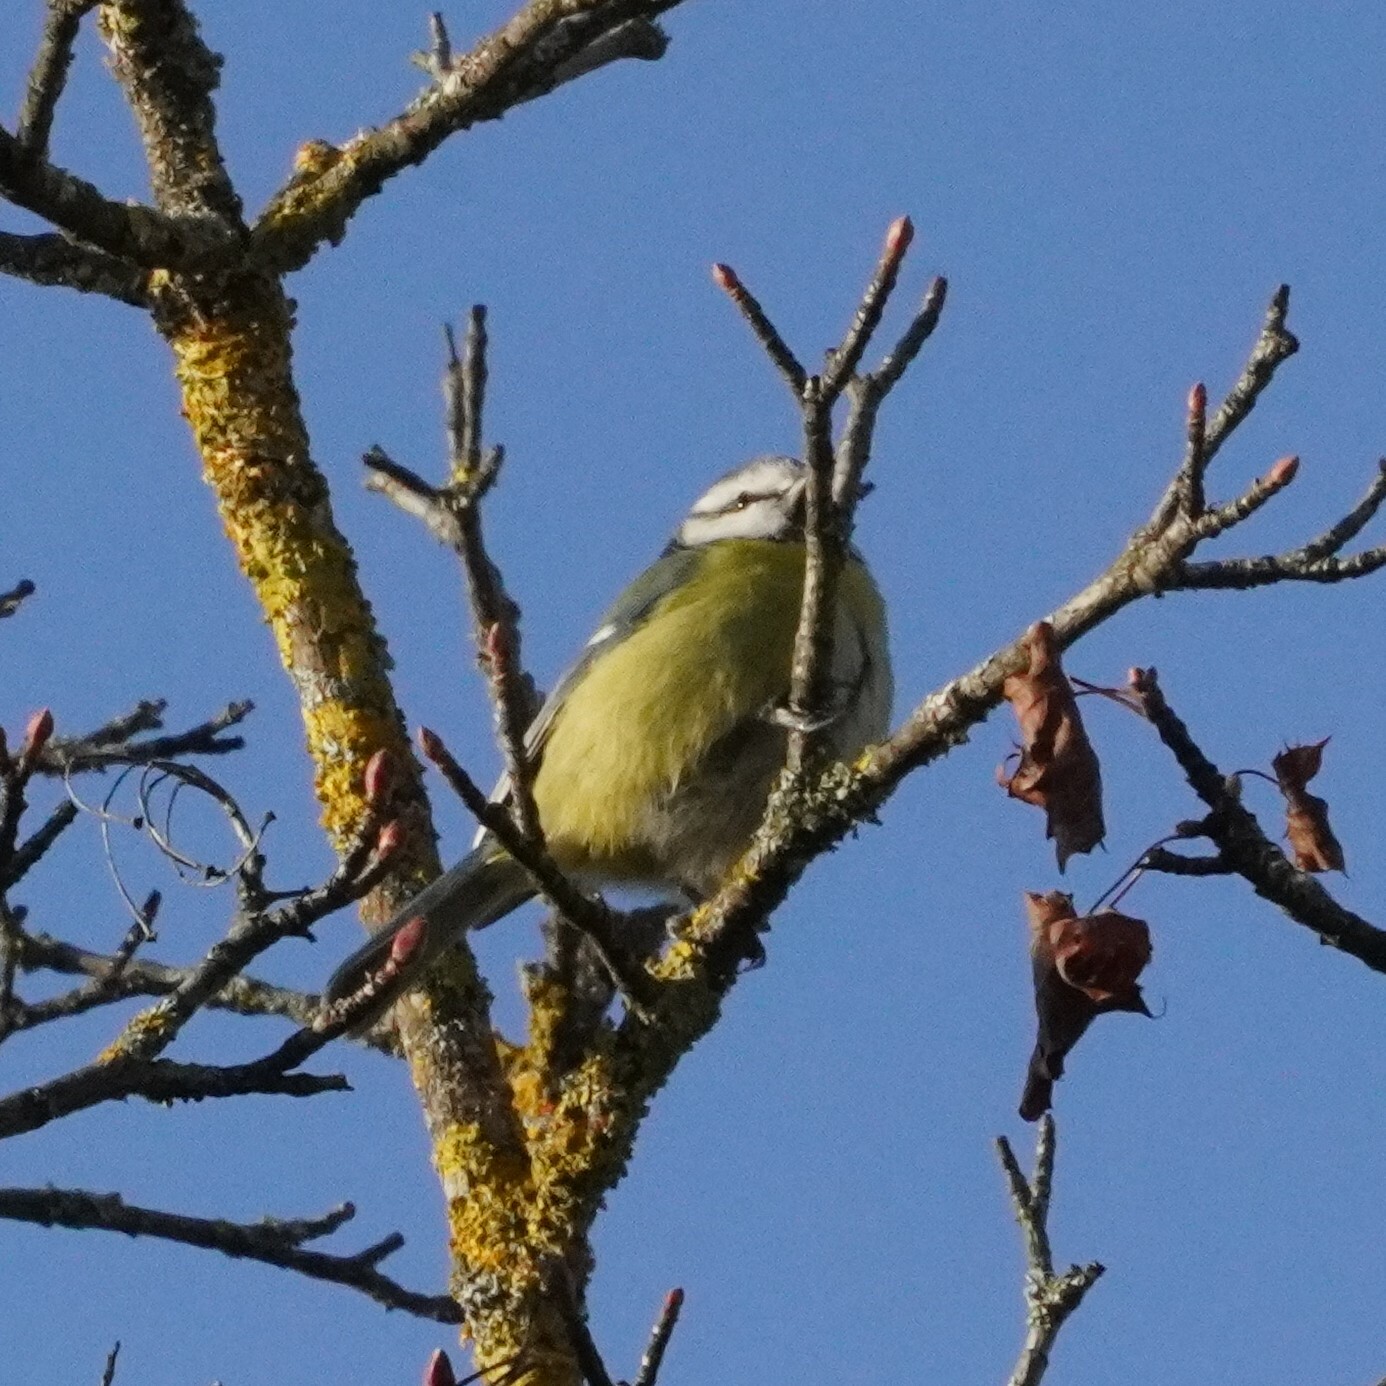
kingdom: Animalia
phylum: Chordata
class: Aves
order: Passeriformes
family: Paridae
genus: Cyanistes
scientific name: Cyanistes caeruleus
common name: Eurasian blue tit
